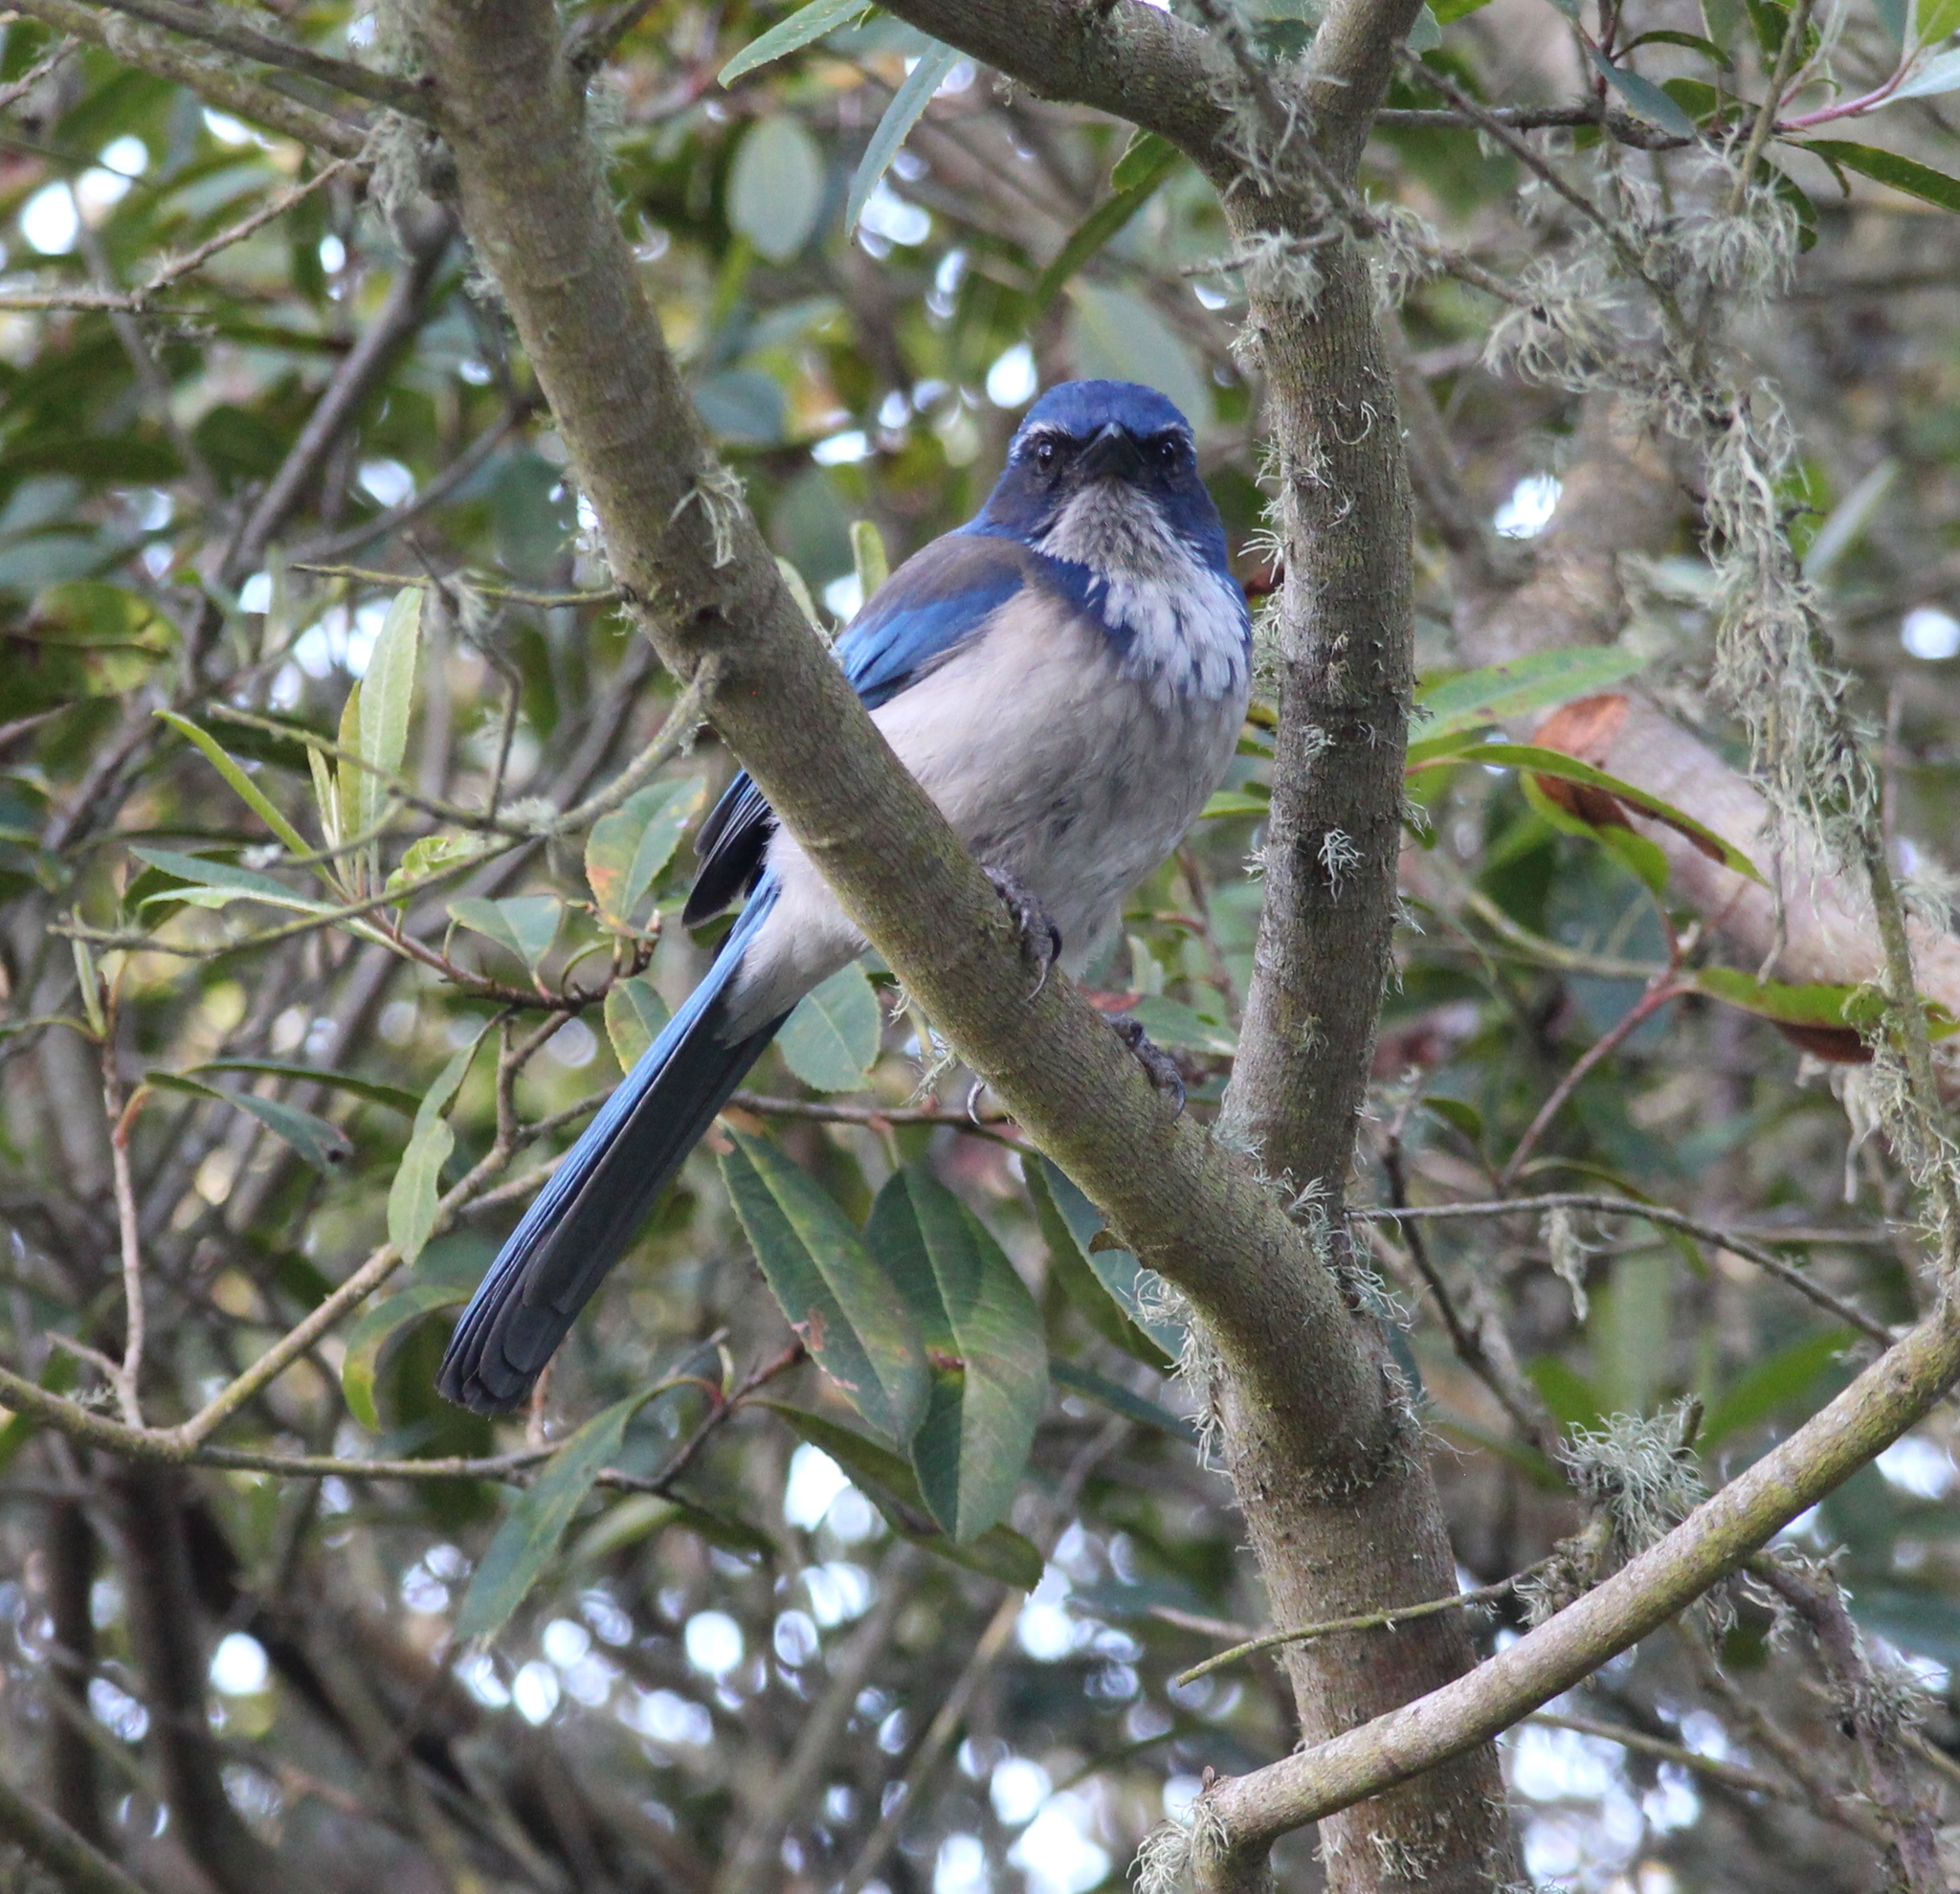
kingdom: Animalia
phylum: Chordata
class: Aves
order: Passeriformes
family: Corvidae
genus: Aphelocoma
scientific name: Aphelocoma californica
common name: California scrub-jay
